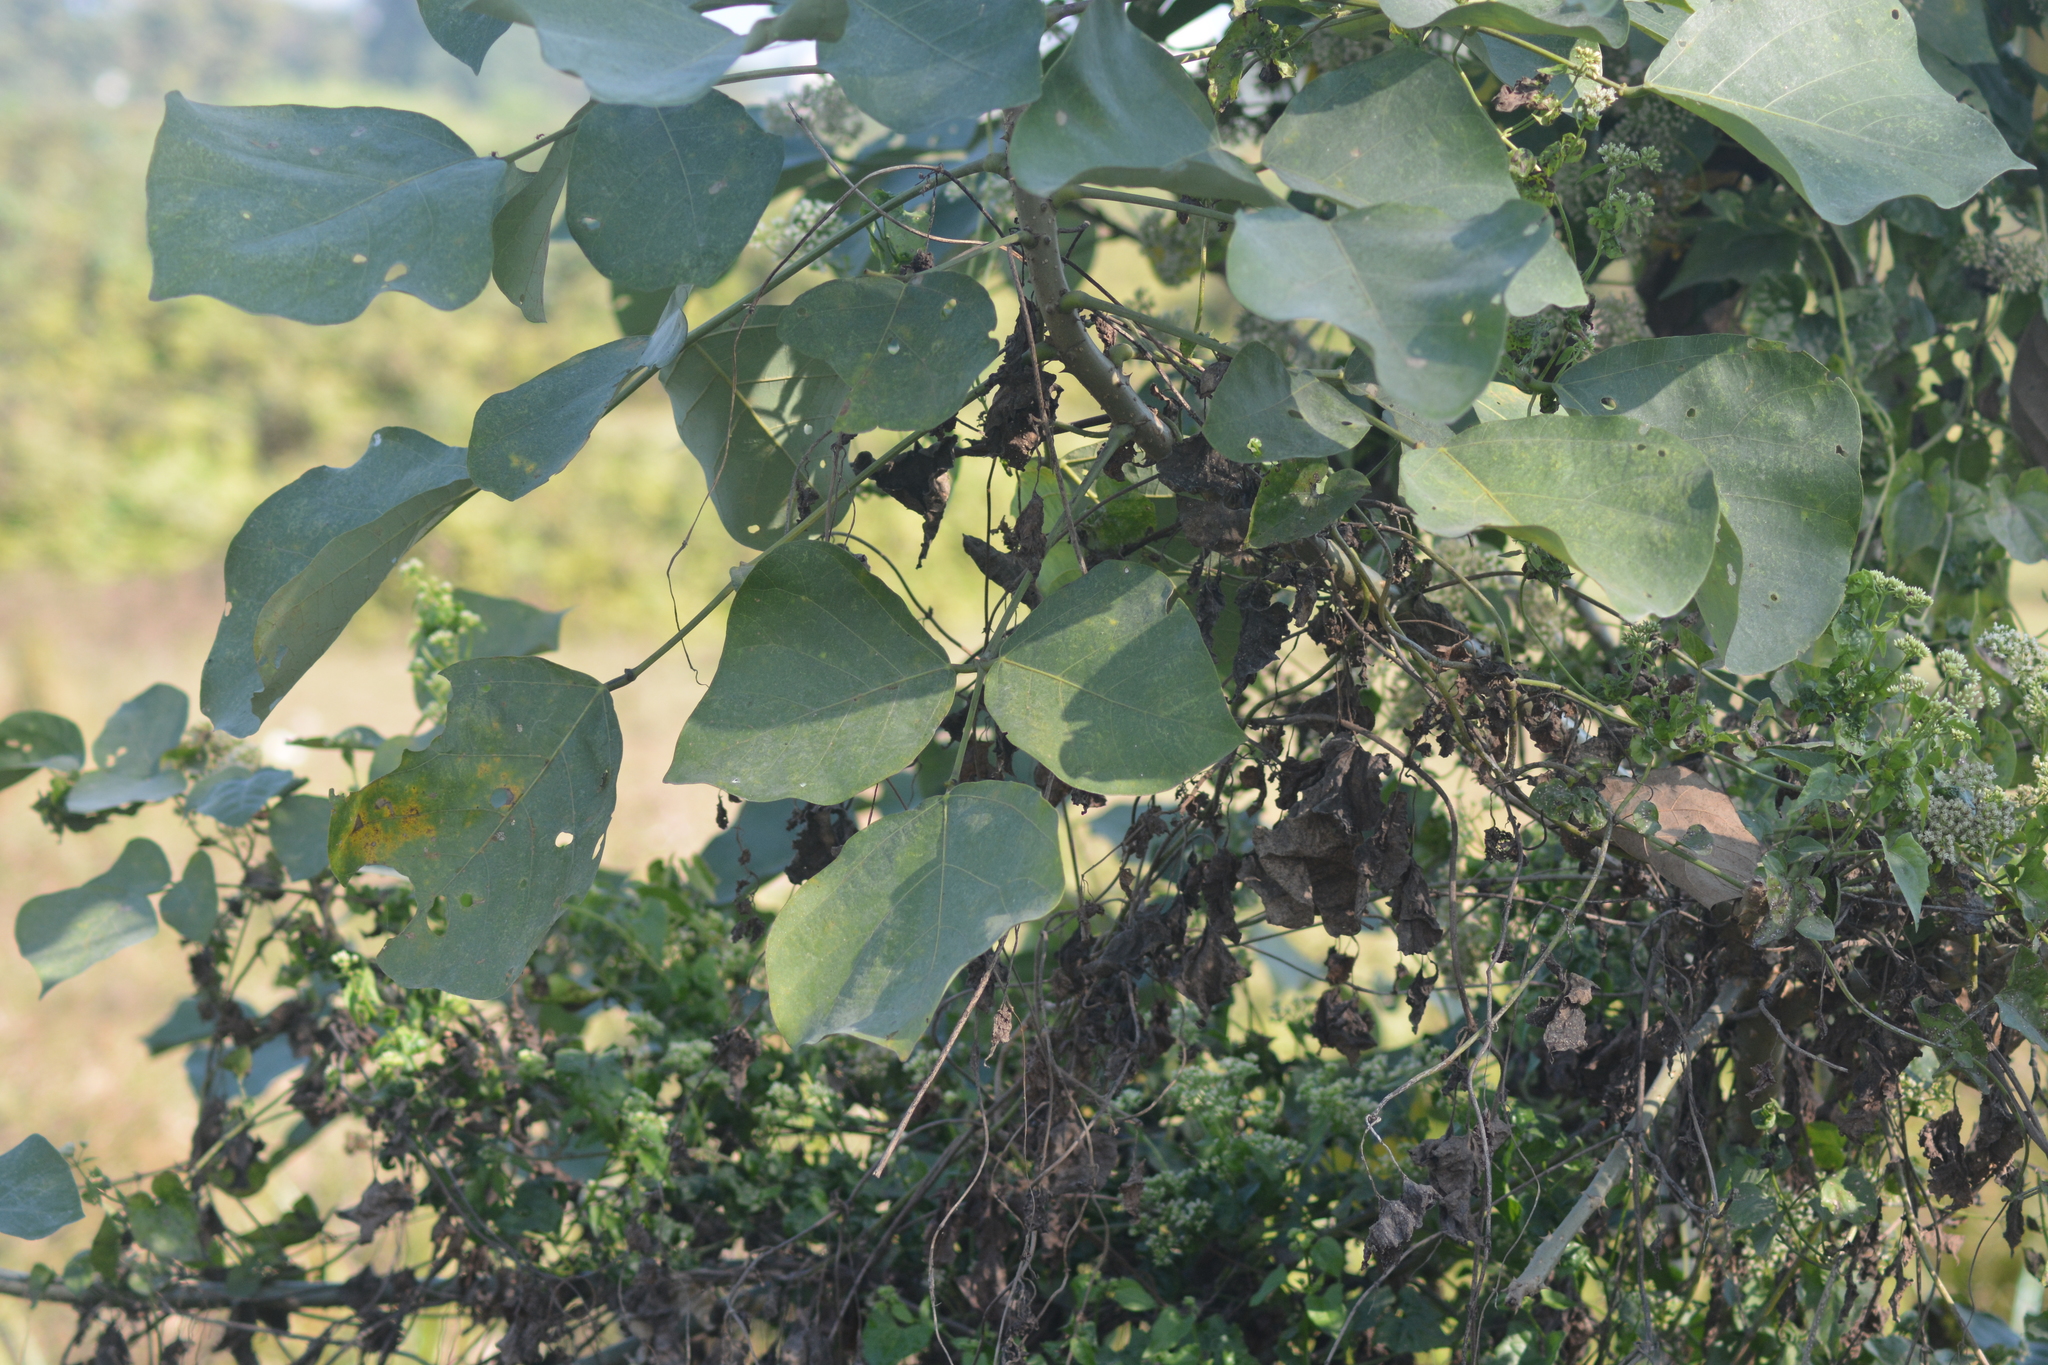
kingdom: Plantae
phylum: Tracheophyta
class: Magnoliopsida
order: Fabales
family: Fabaceae
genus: Butea
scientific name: Butea monosperma
